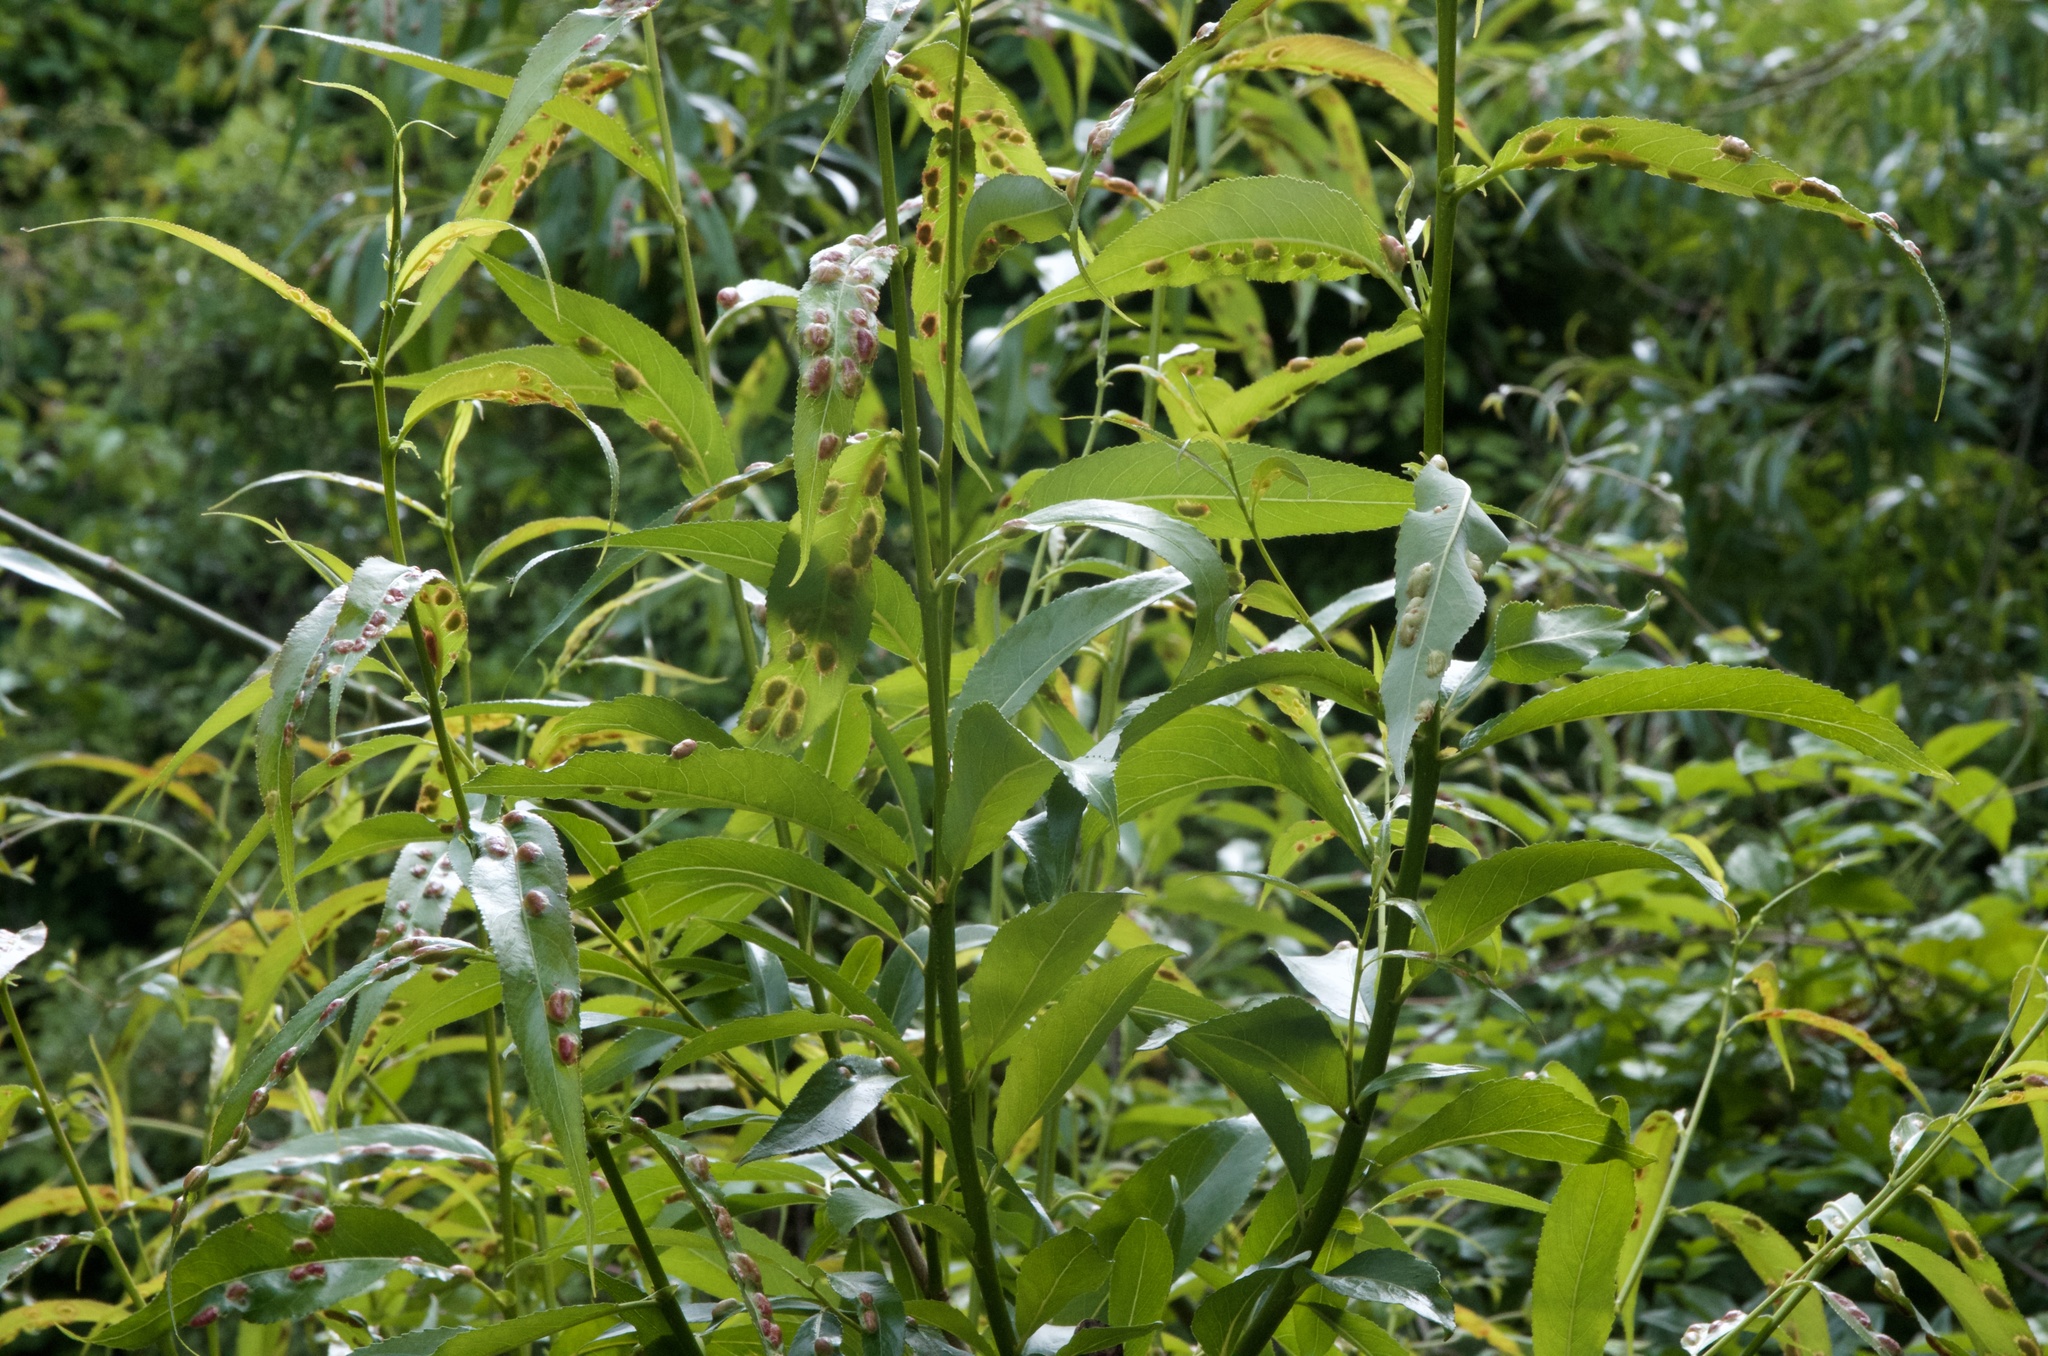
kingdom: Animalia
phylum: Arthropoda
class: Insecta
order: Hymenoptera
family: Tenthredinidae
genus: Pontania
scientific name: Pontania proxima
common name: Common sawfly
